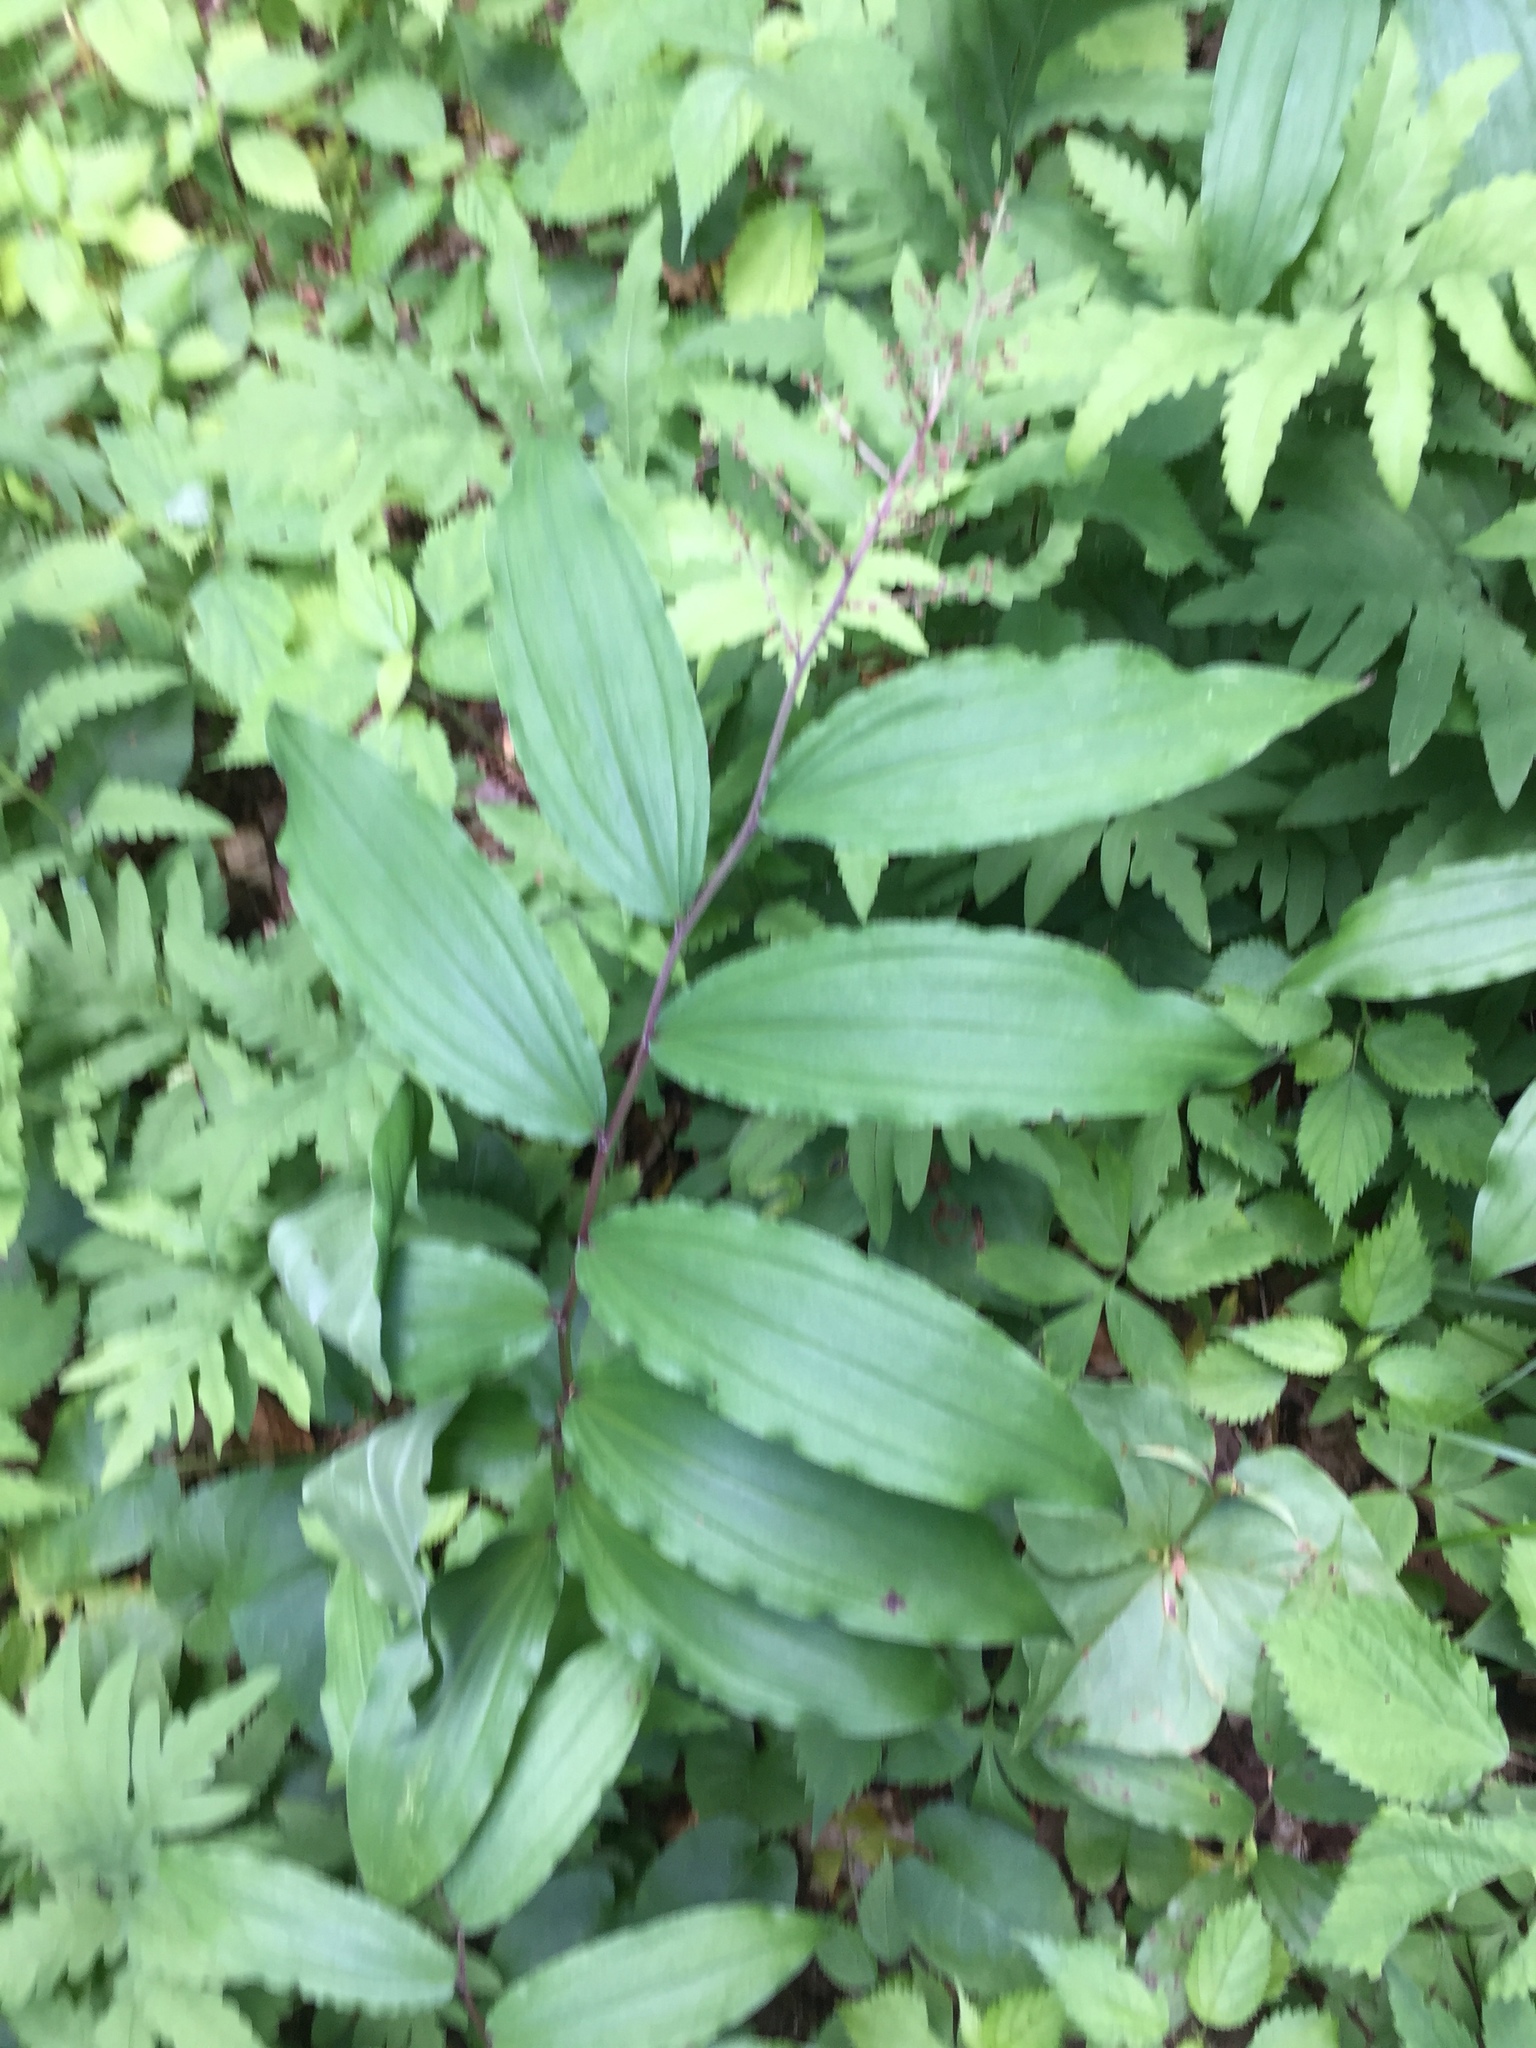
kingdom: Plantae
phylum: Tracheophyta
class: Liliopsida
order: Asparagales
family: Asparagaceae
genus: Maianthemum
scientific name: Maianthemum racemosum
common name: False spikenard
